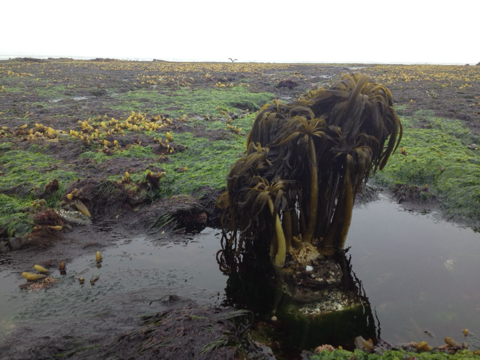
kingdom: Chromista
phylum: Ochrophyta
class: Phaeophyceae
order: Laminariales
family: Laminariaceae
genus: Postelsia
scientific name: Postelsia palmiformis
